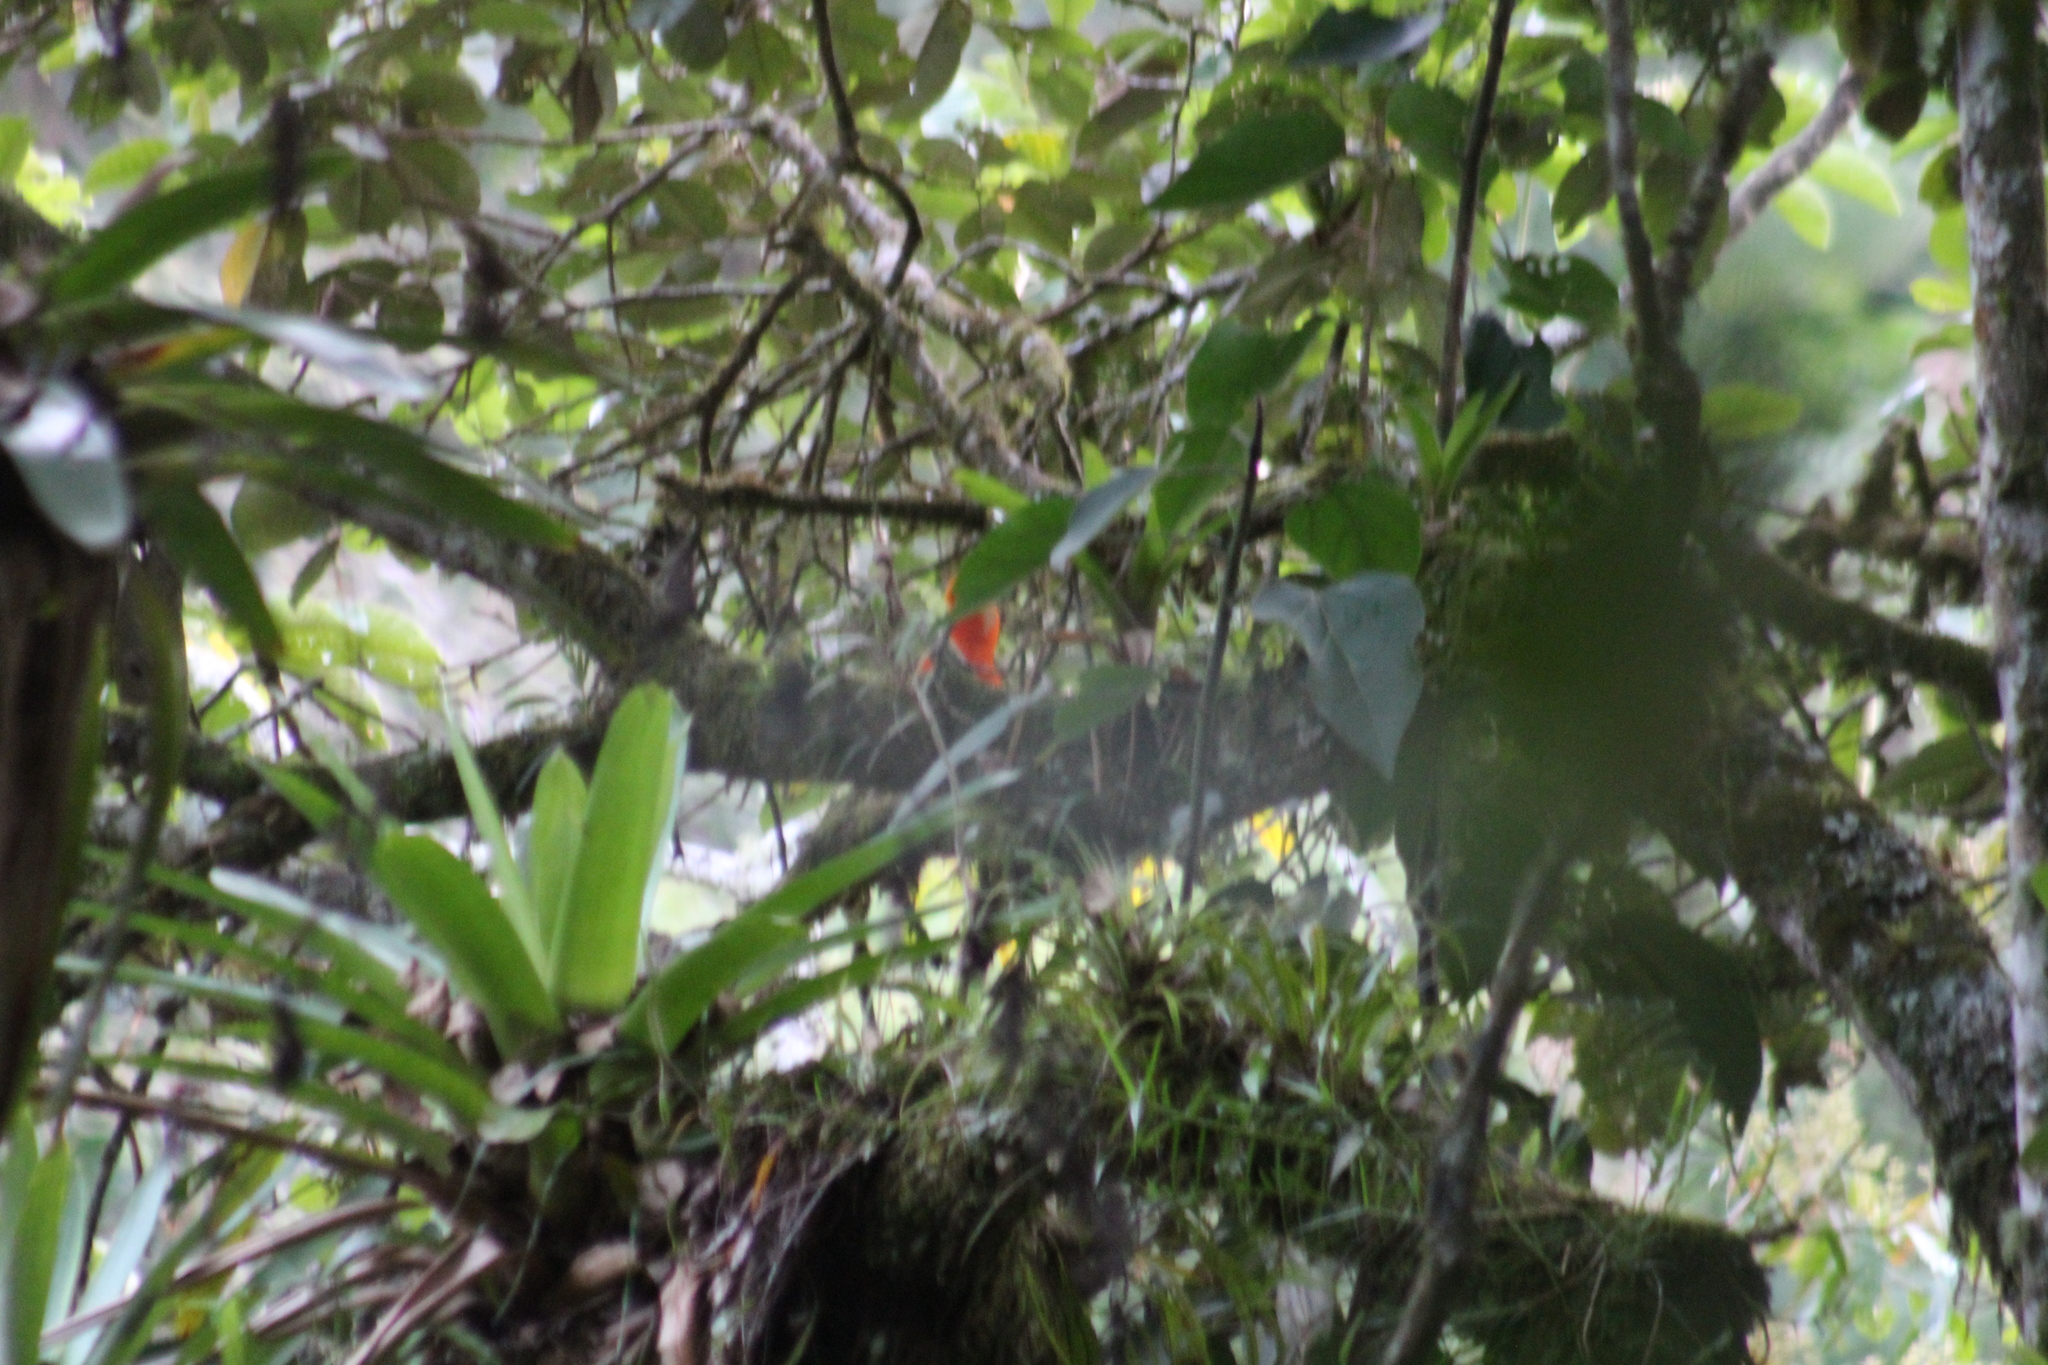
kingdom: Animalia
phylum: Chordata
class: Aves
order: Passeriformes
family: Cotingidae
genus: Rupicola
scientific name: Rupicola peruvianus
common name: Andean cock-of-the-rock
